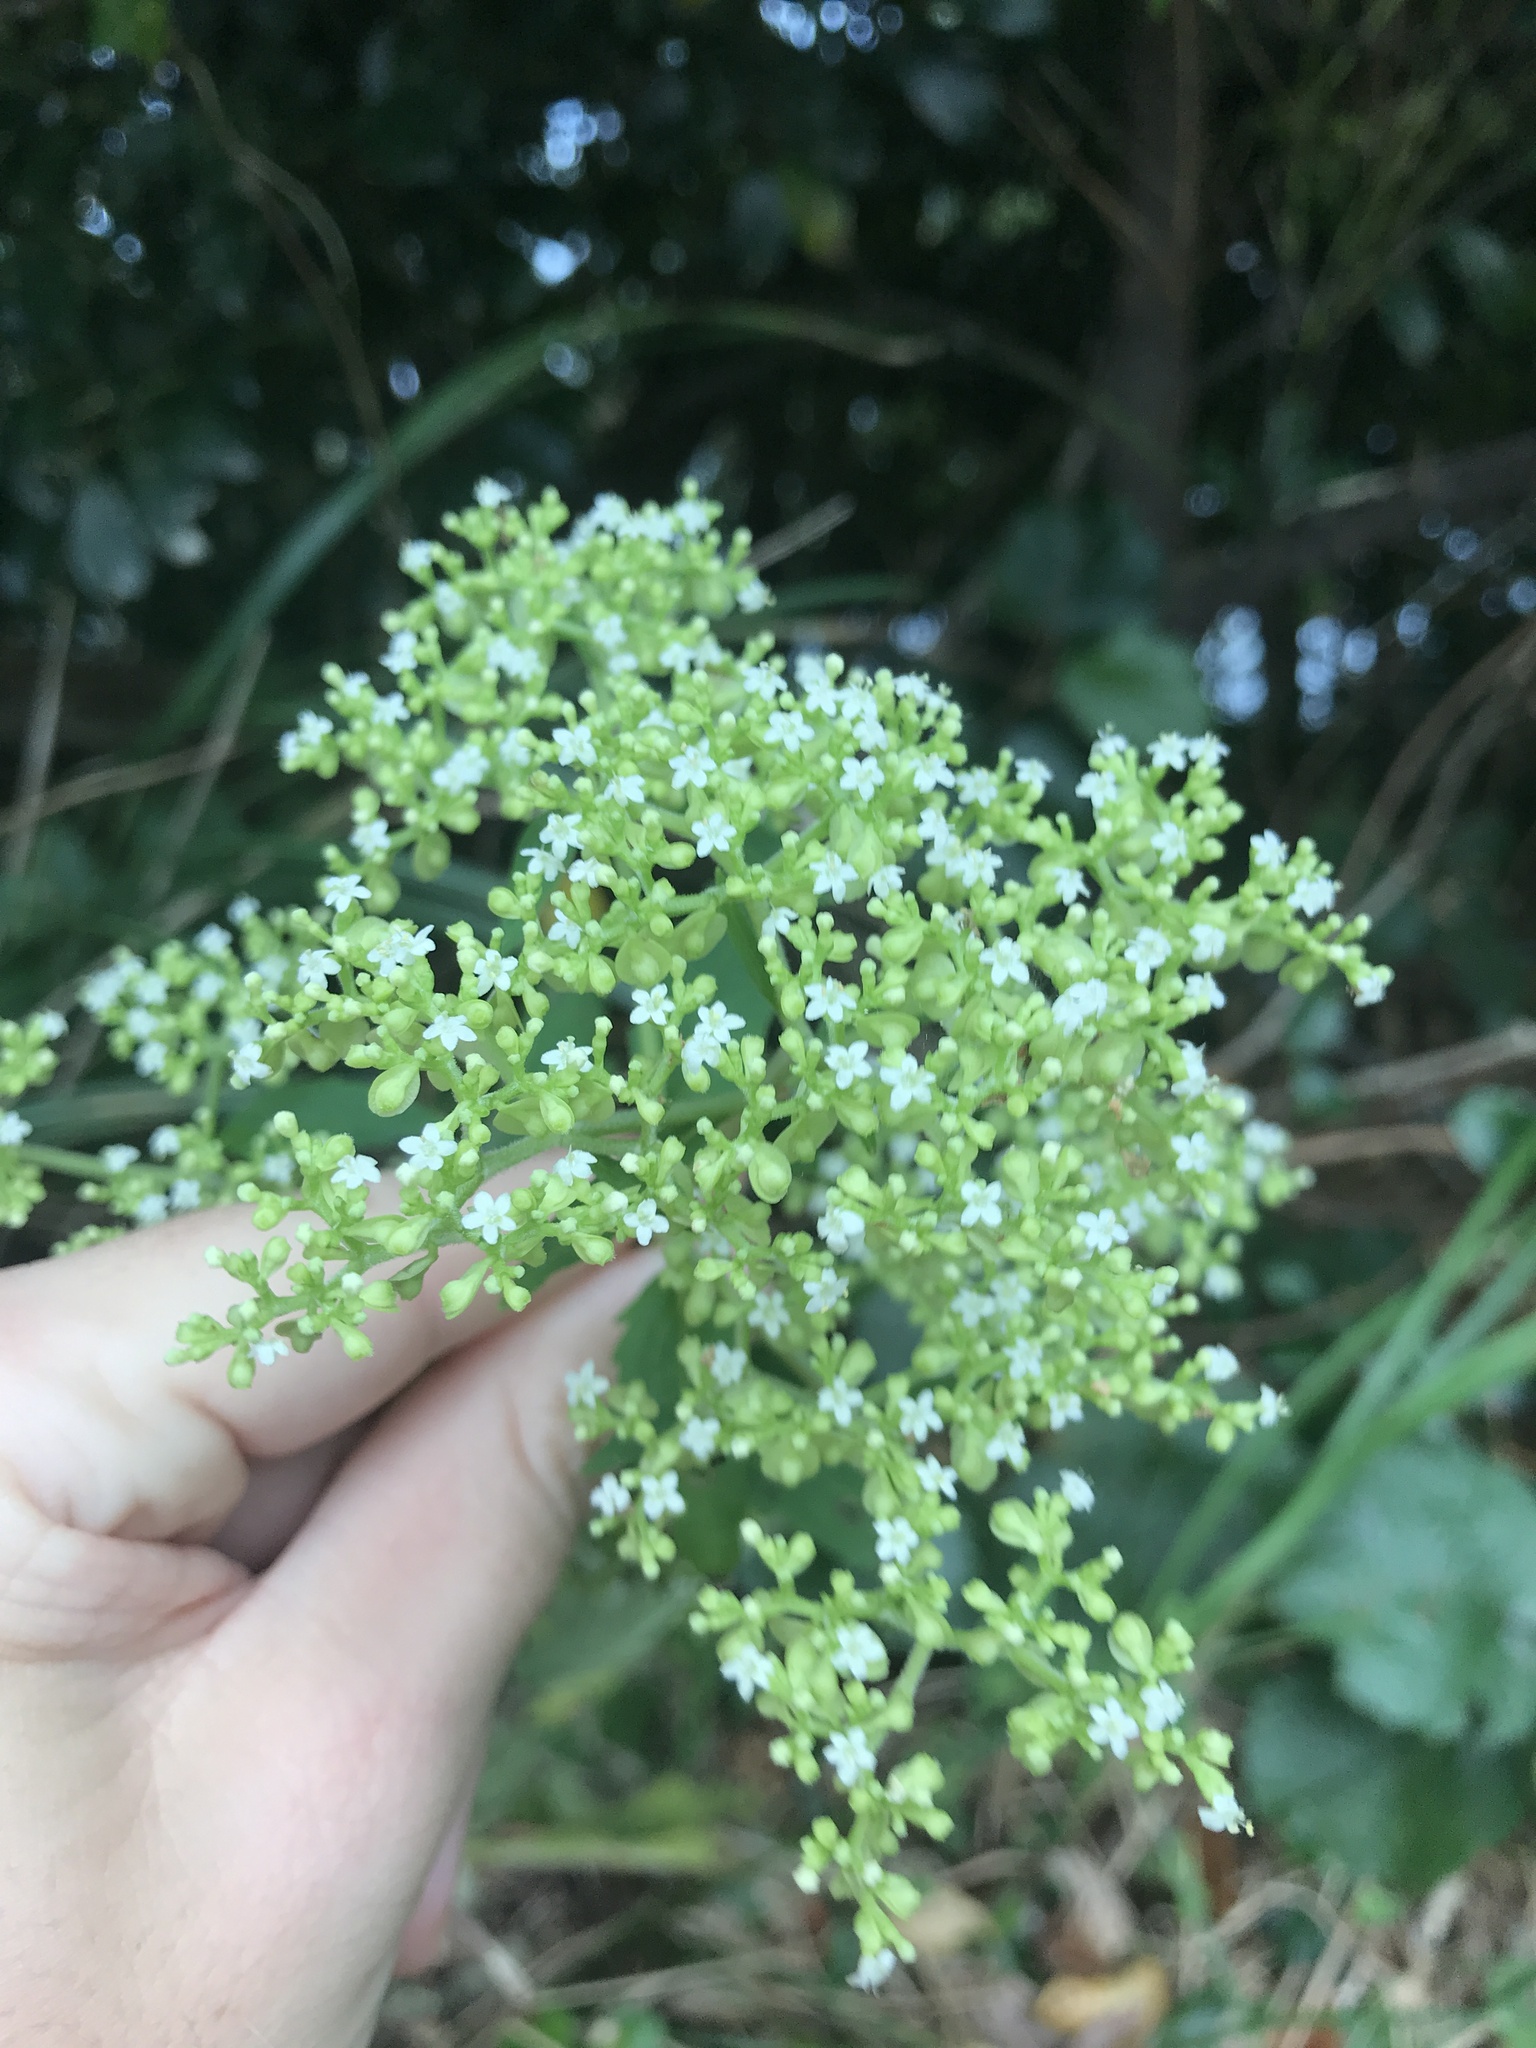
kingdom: Plantae
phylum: Tracheophyta
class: Magnoliopsida
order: Dipsacales
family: Caprifoliaceae
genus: Patrinia
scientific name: Patrinia villosa
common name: Patrinia
